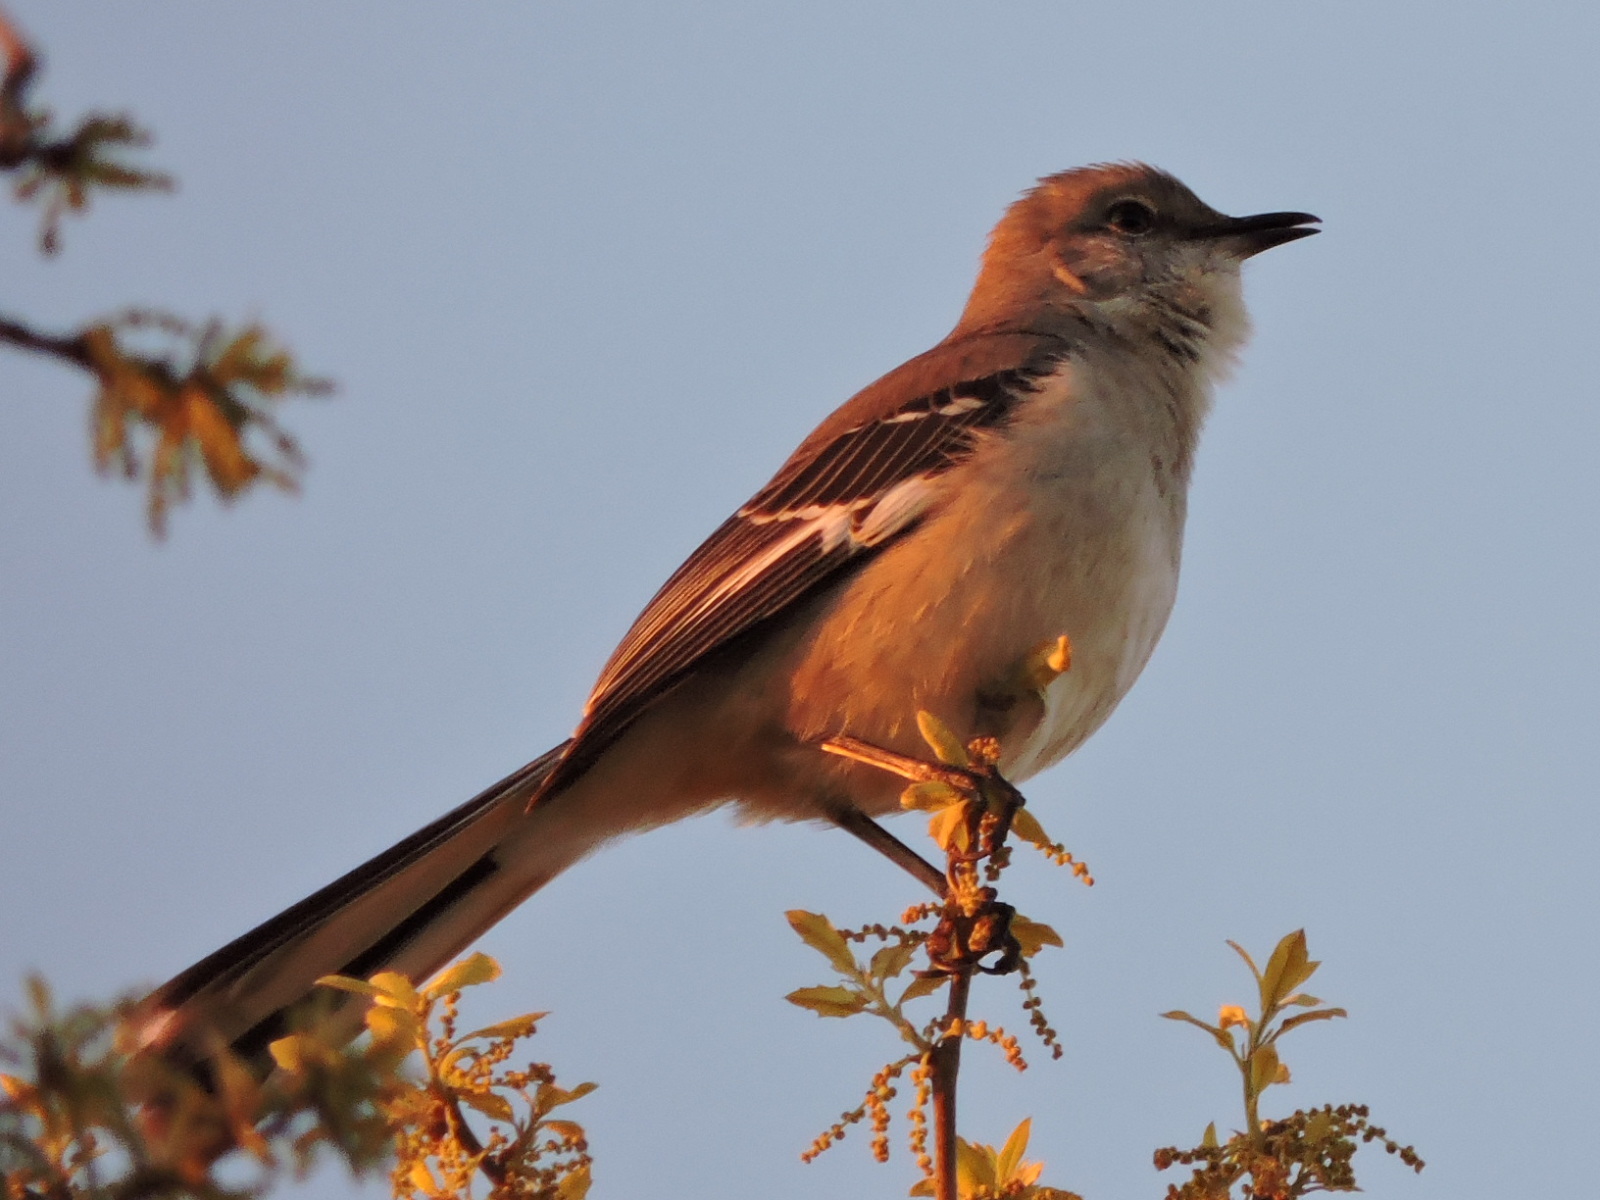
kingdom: Animalia
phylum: Chordata
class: Aves
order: Passeriformes
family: Mimidae
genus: Mimus
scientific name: Mimus polyglottos
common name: Northern mockingbird
